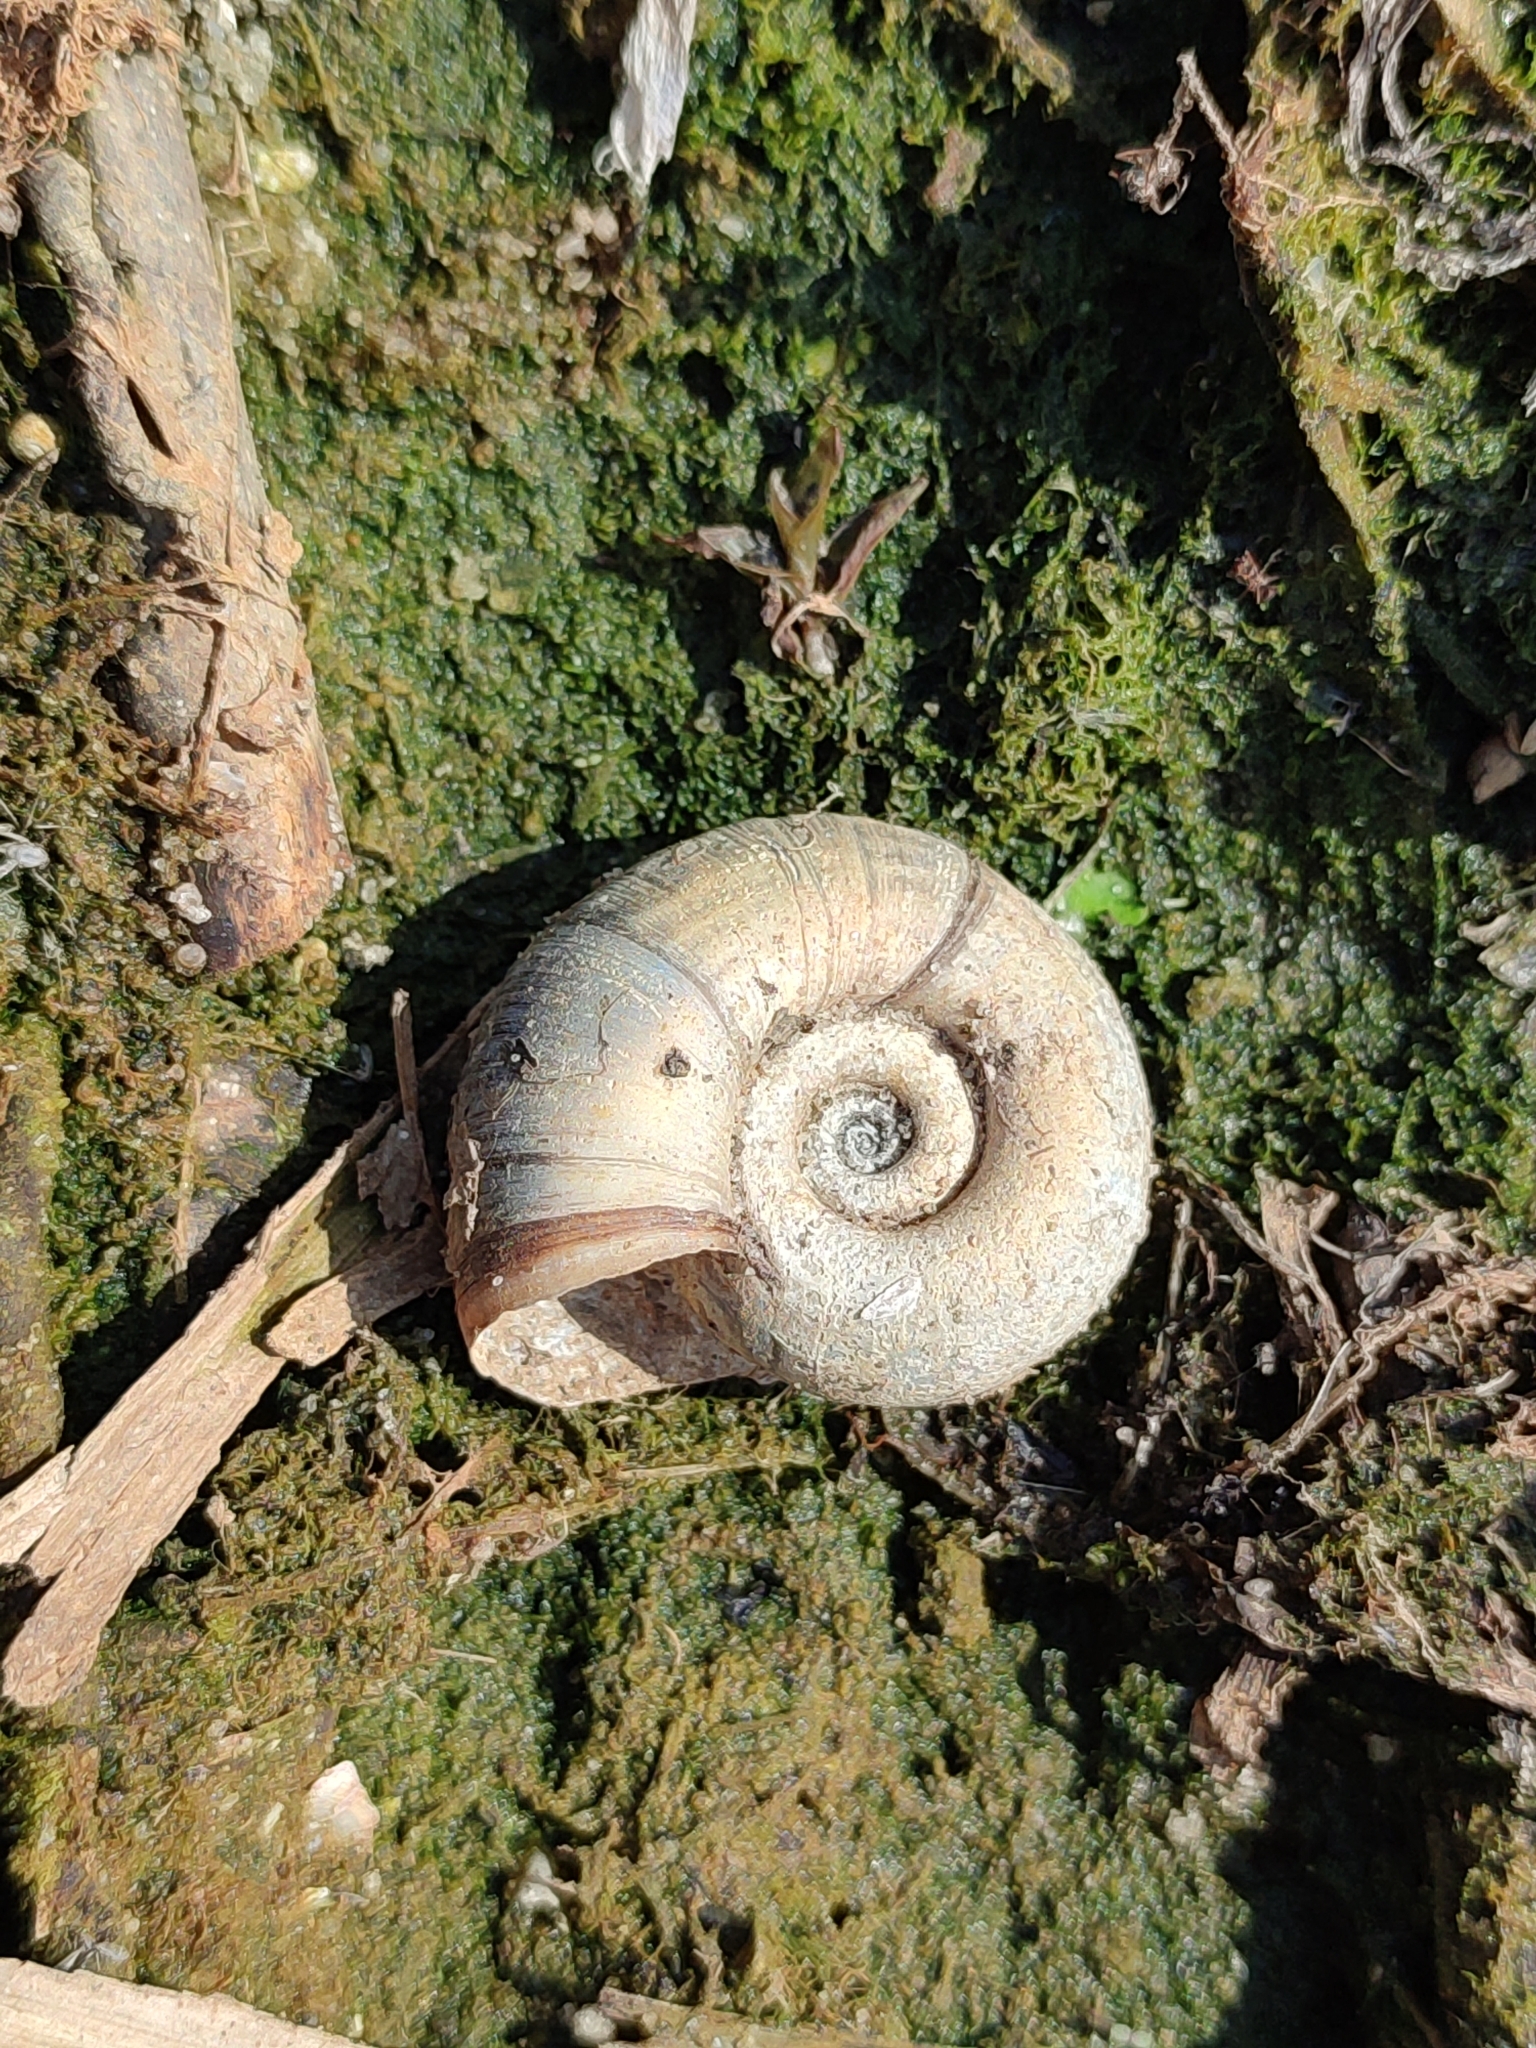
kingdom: Animalia
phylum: Mollusca
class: Gastropoda
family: Planorbidae
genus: Planorbarius
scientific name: Planorbarius corneus
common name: Great ramshorn
